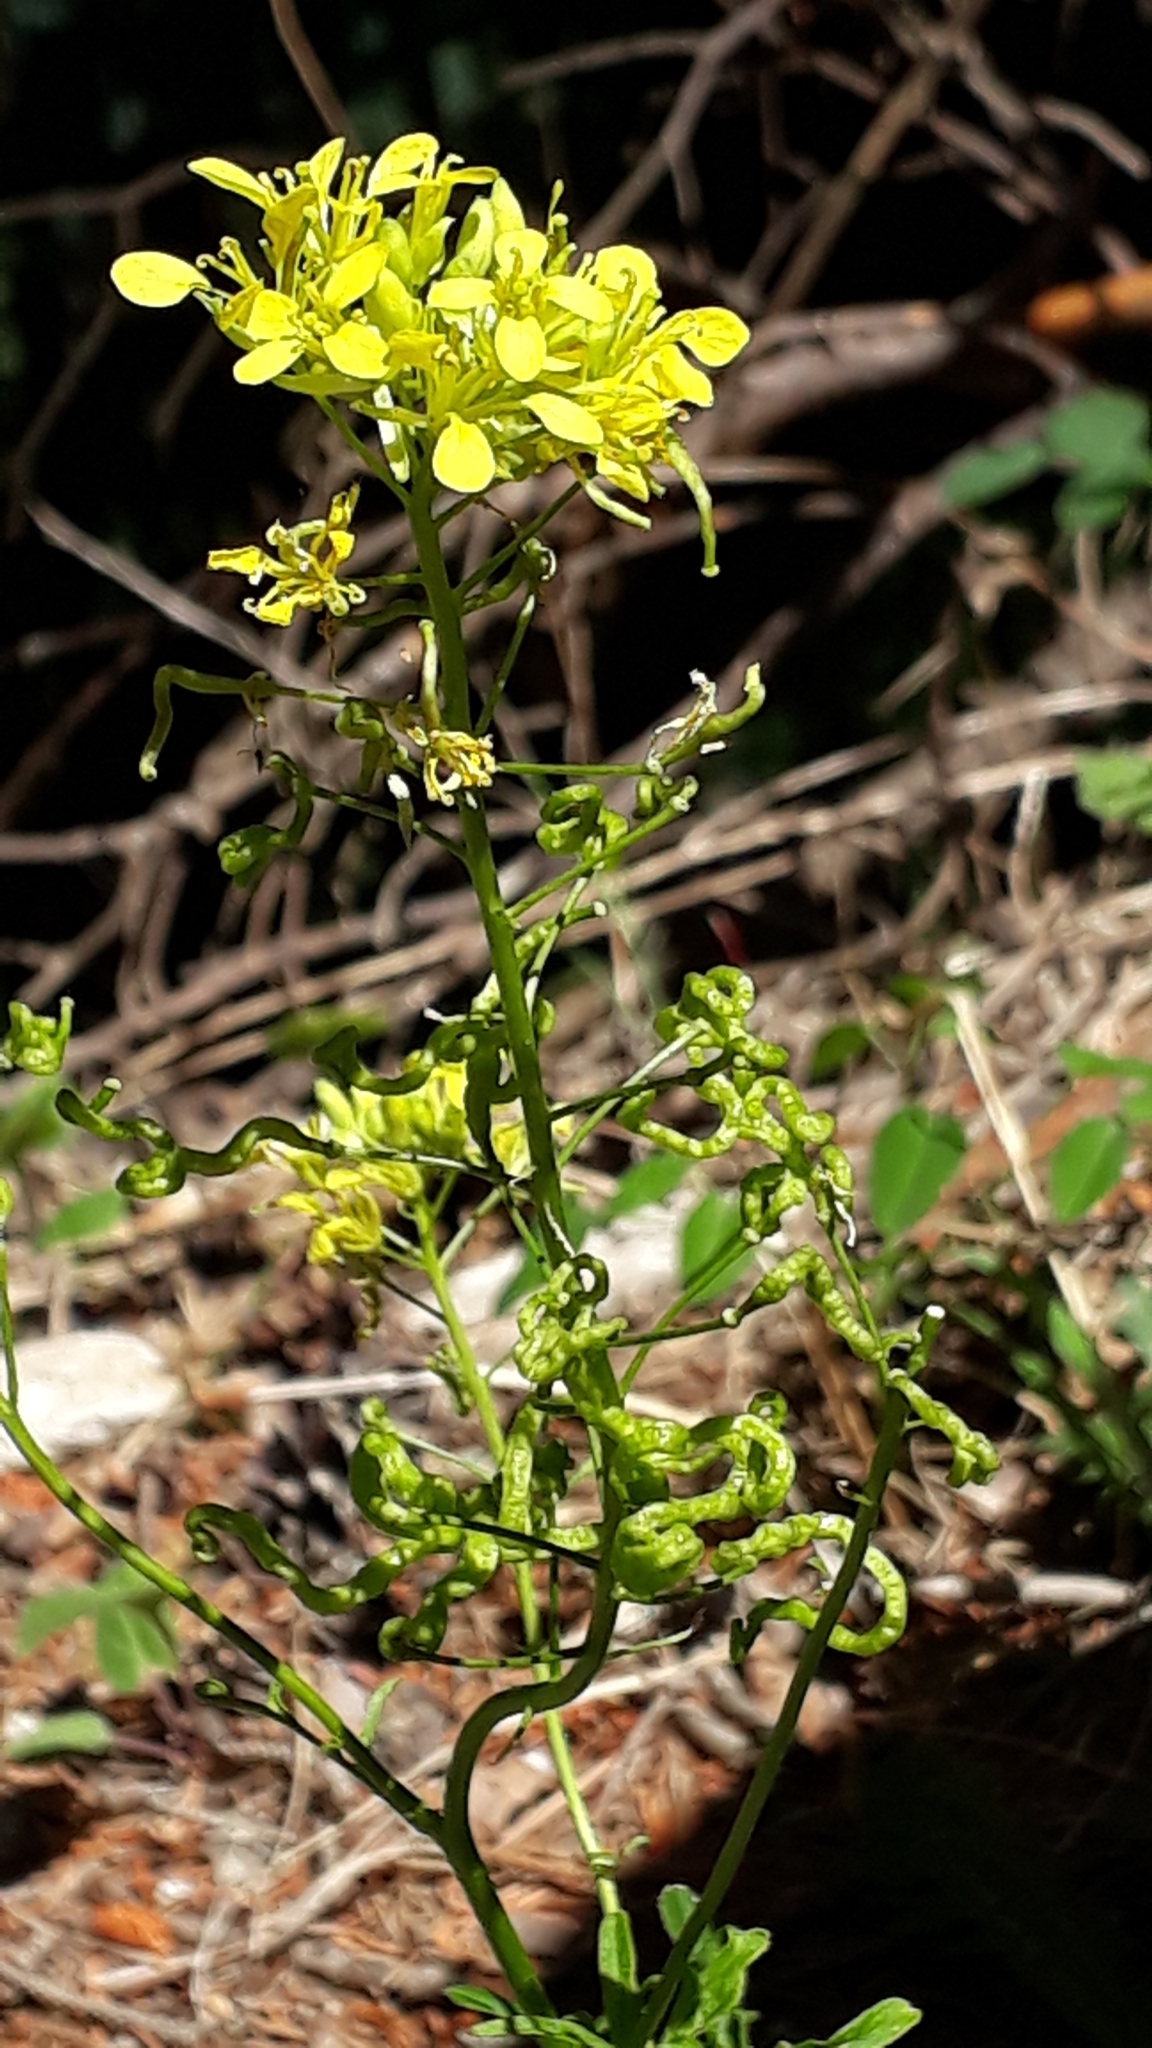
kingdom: Plantae
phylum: Tracheophyta
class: Magnoliopsida
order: Brassicales
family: Brassicaceae
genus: Erucastrum
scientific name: Erucastrum nasturtiifolium
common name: Watercress-leaf rocket
